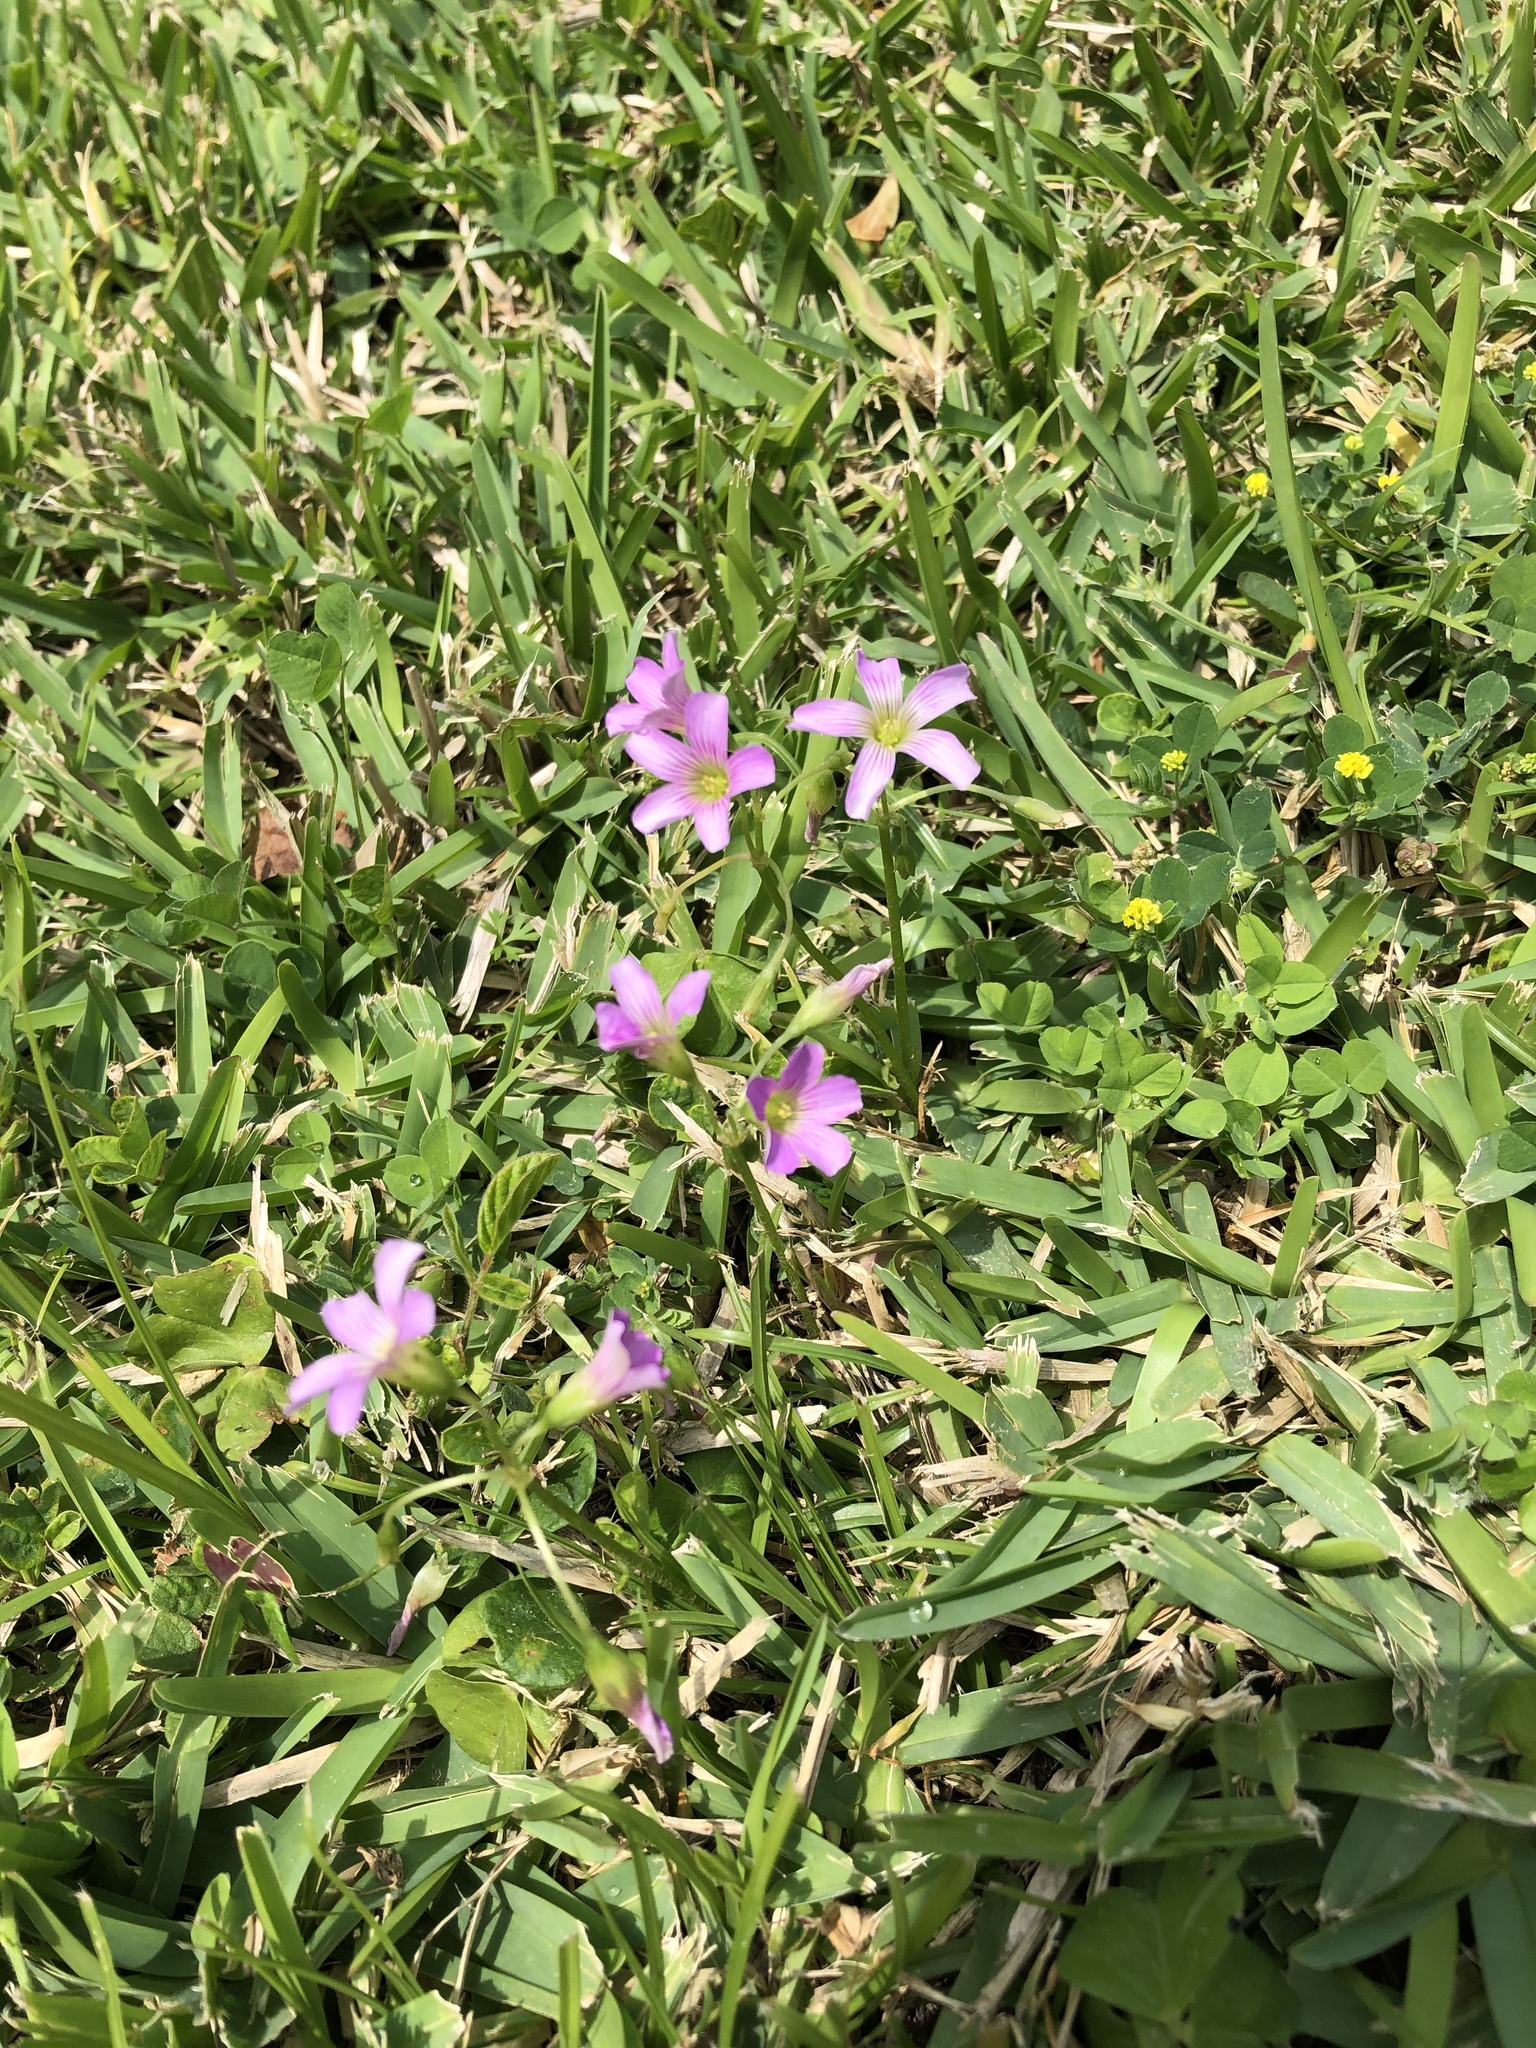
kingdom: Plantae
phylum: Tracheophyta
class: Magnoliopsida
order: Oxalidales
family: Oxalidaceae
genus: Oxalis
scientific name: Oxalis debilis
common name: Large-flowered pink-sorrel
